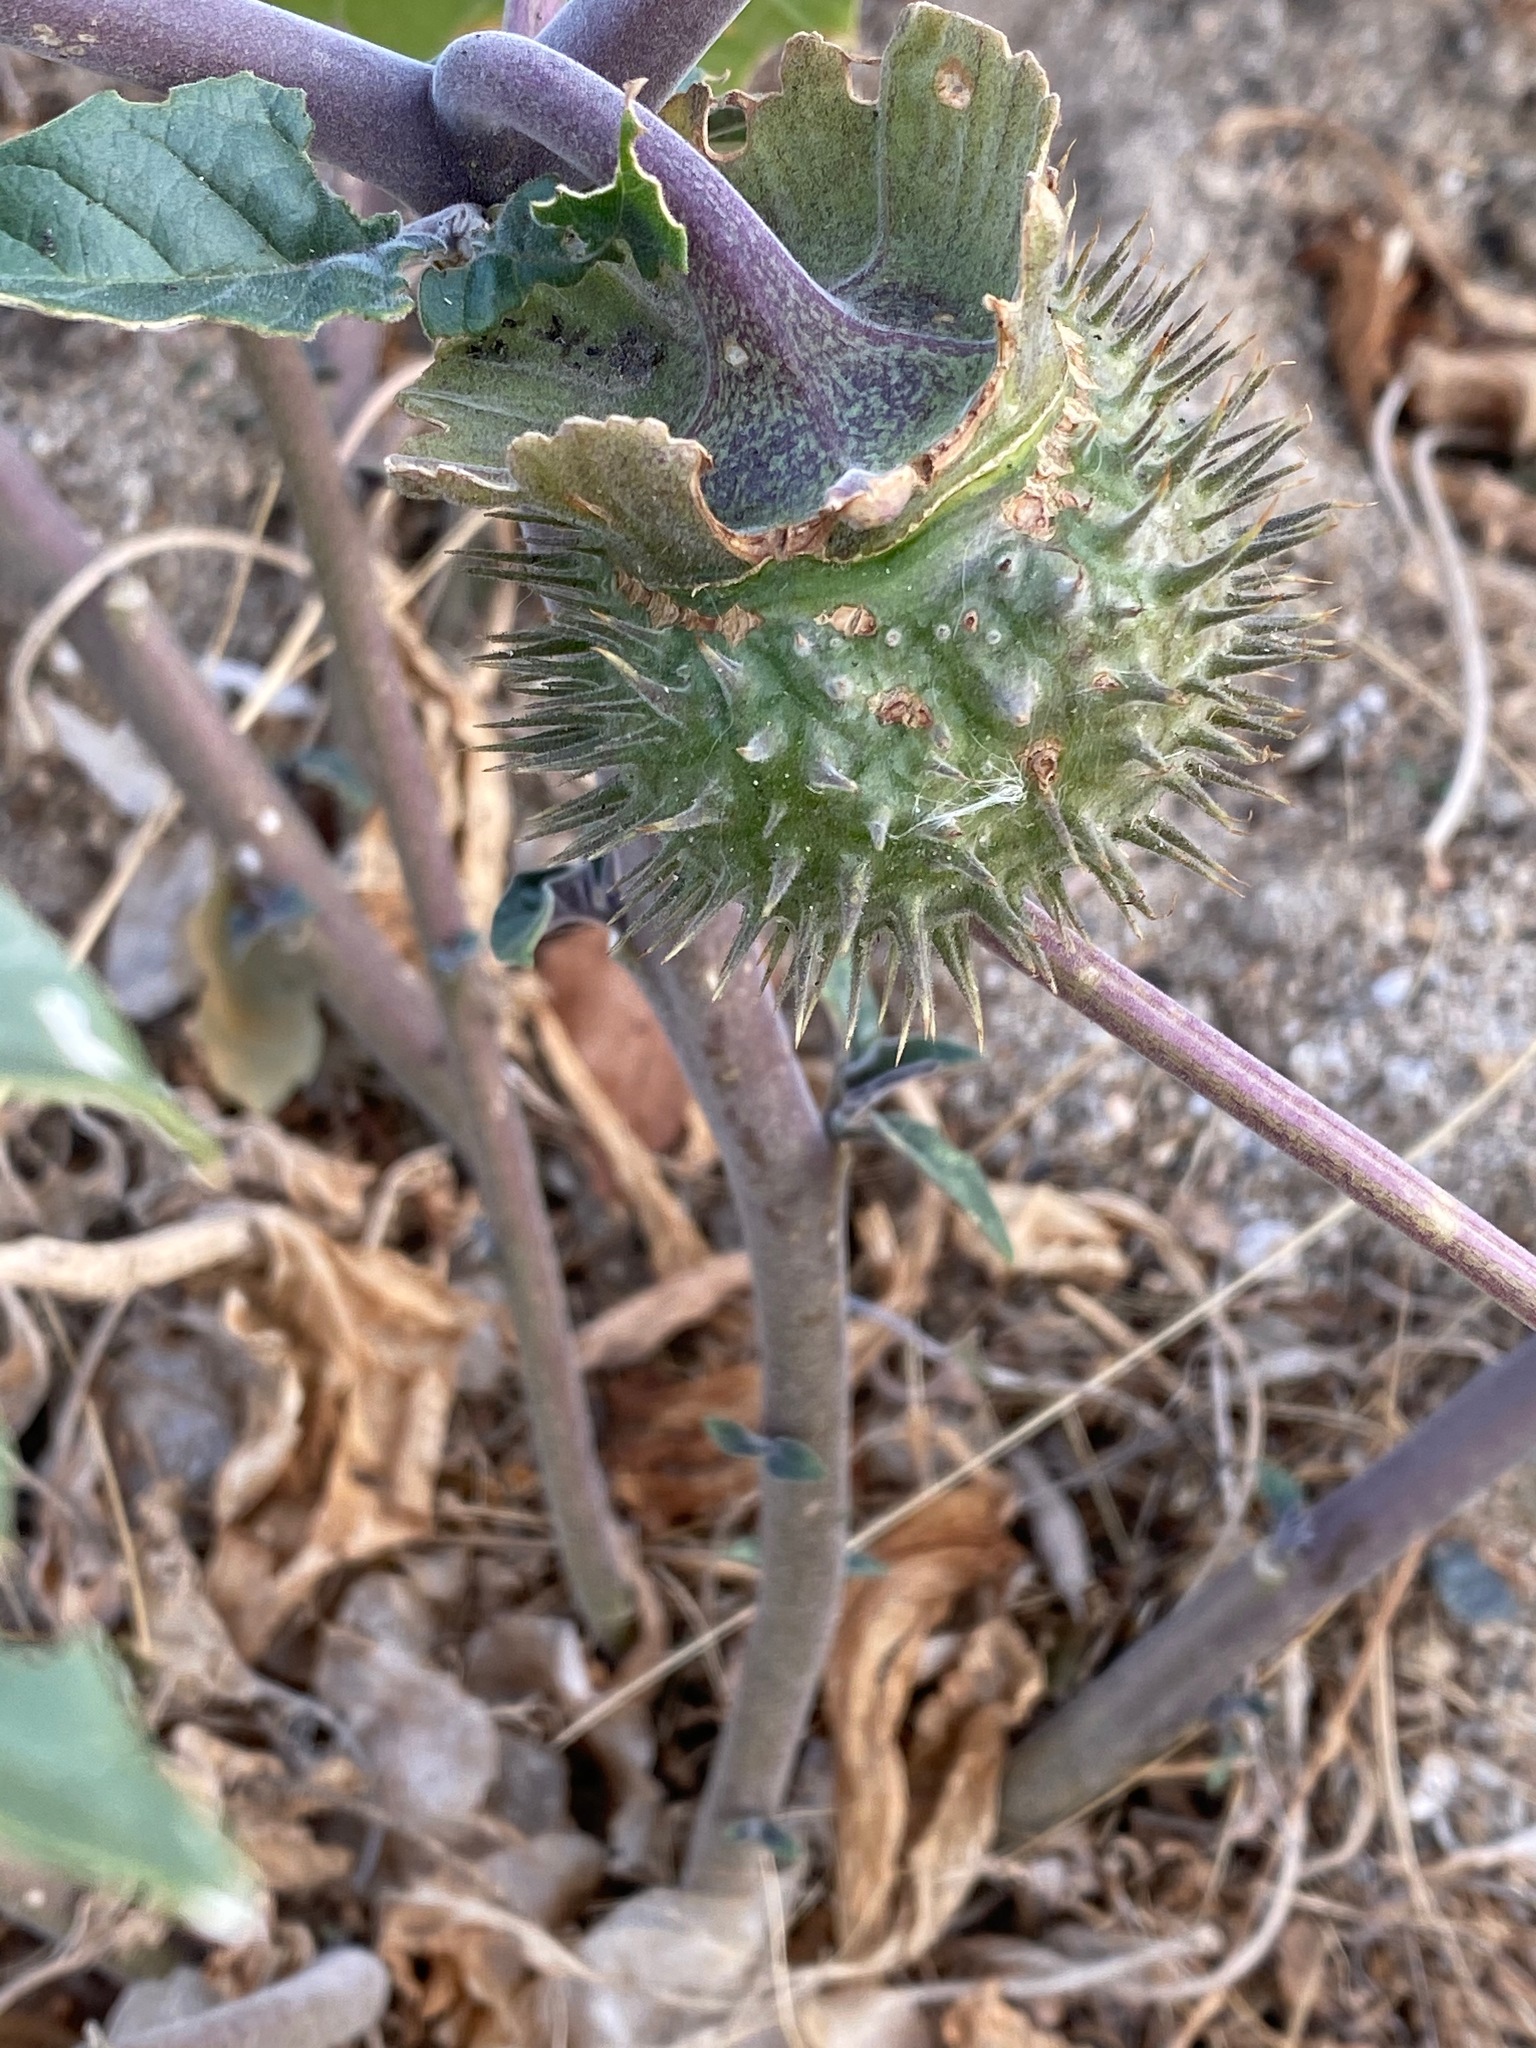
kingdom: Plantae
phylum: Tracheophyta
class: Magnoliopsida
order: Solanales
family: Solanaceae
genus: Datura
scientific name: Datura wrightii
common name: Sacred thorn-apple
